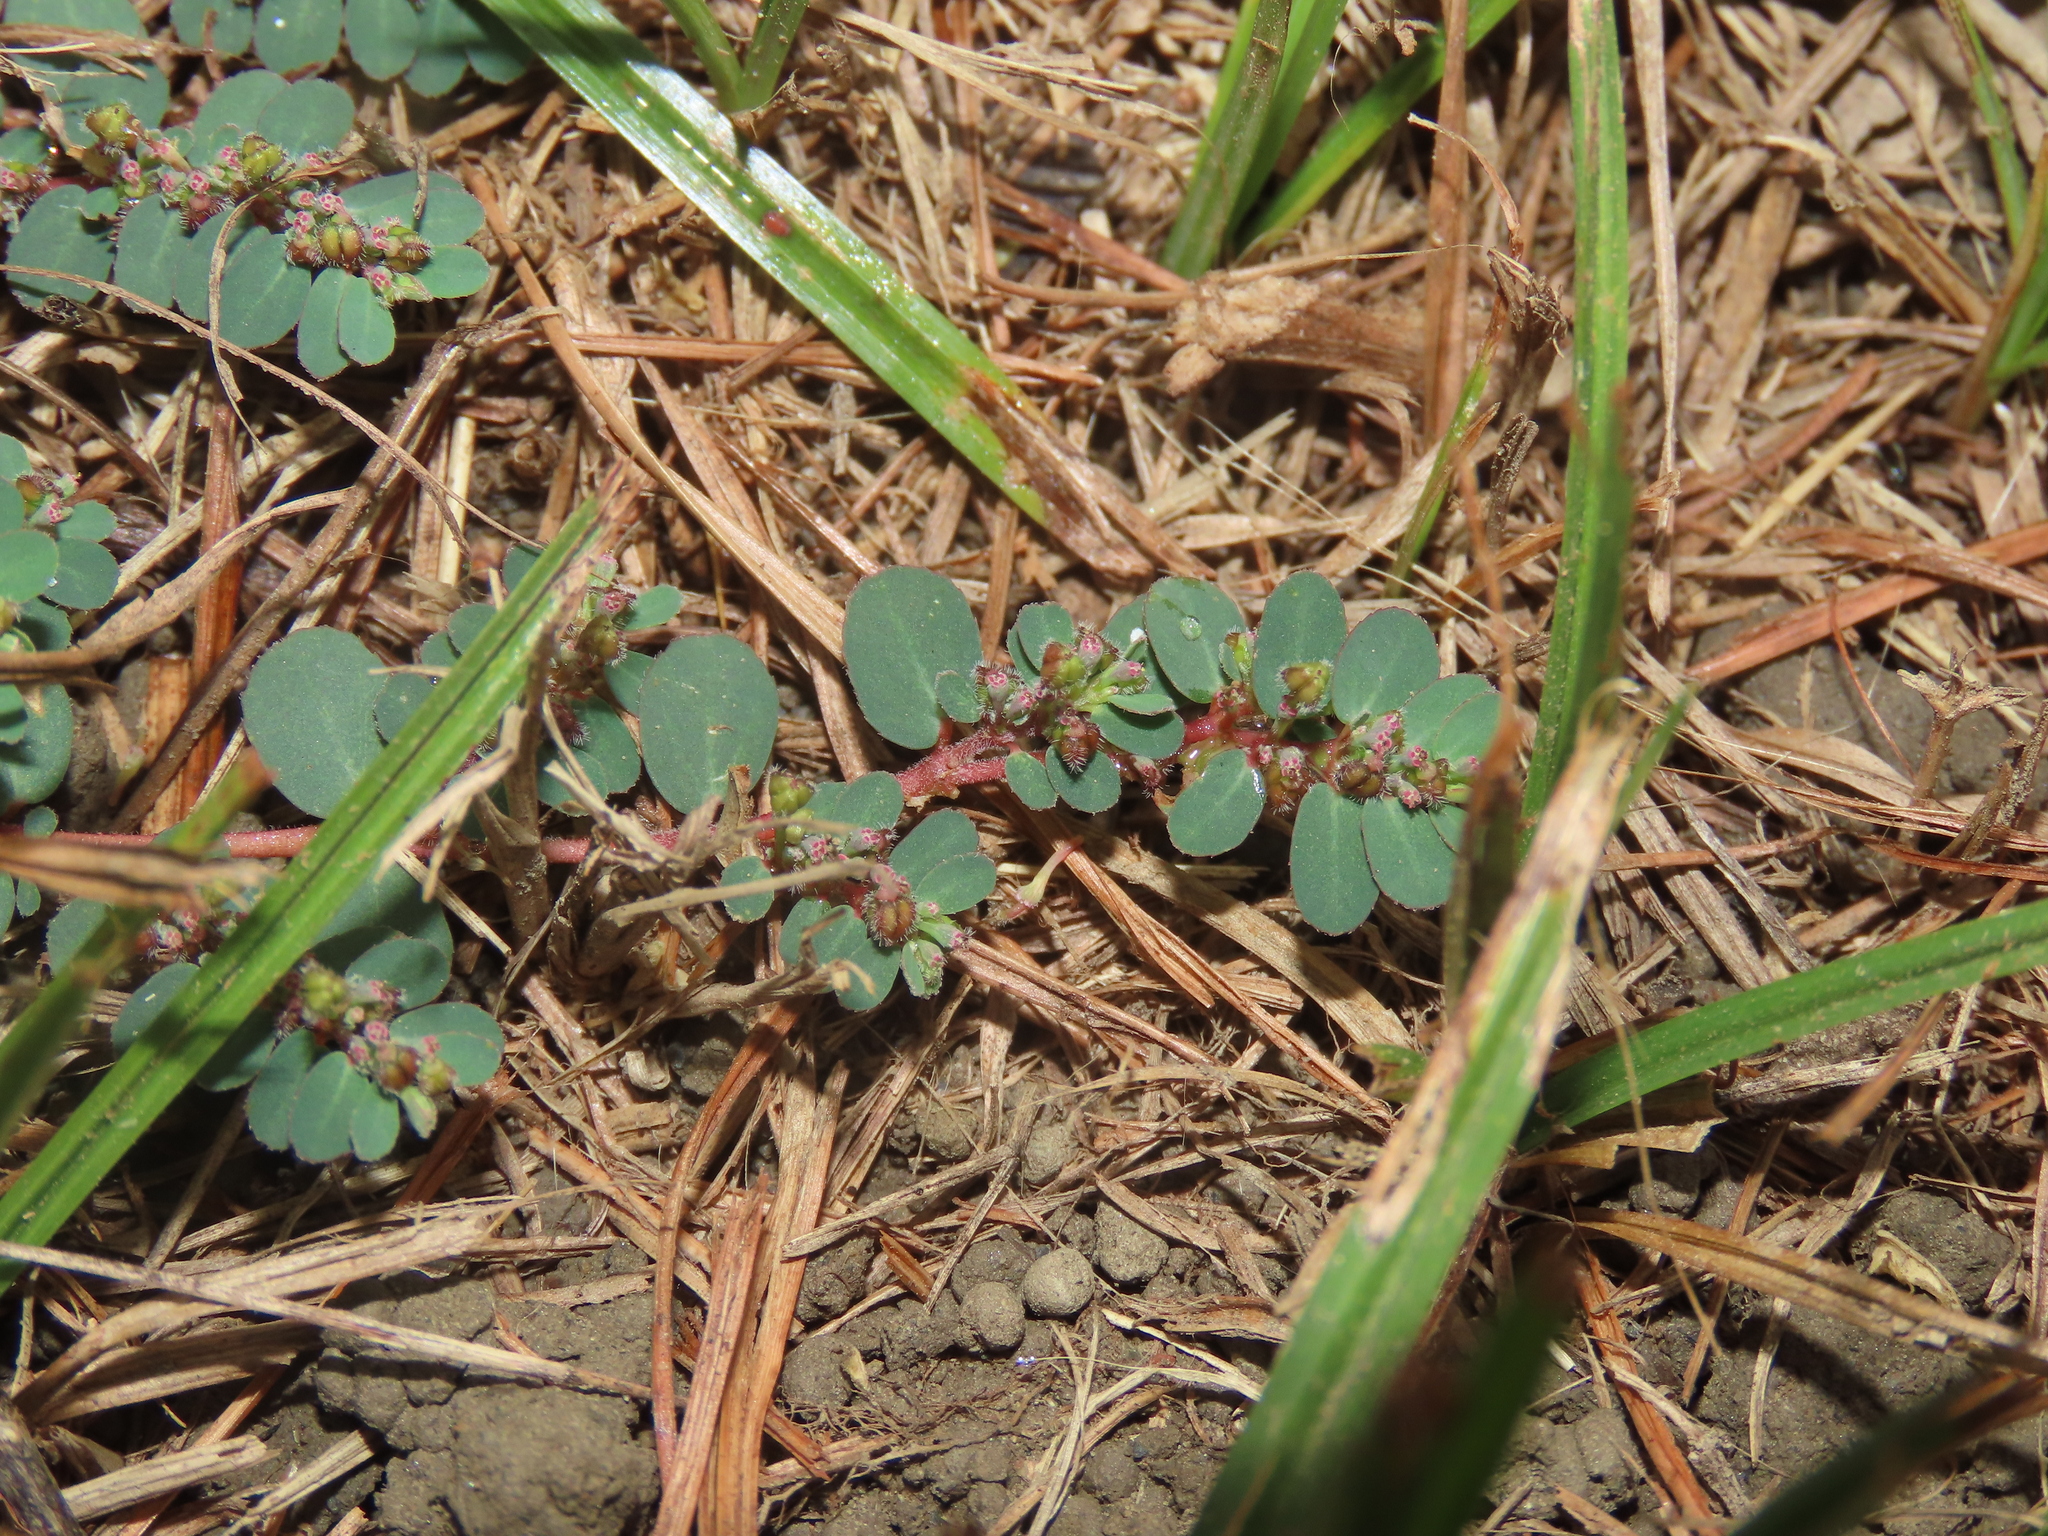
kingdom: Plantae
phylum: Tracheophyta
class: Magnoliopsida
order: Malpighiales
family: Euphorbiaceae
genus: Euphorbia
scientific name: Euphorbia prostrata
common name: Prostrate sandmat
